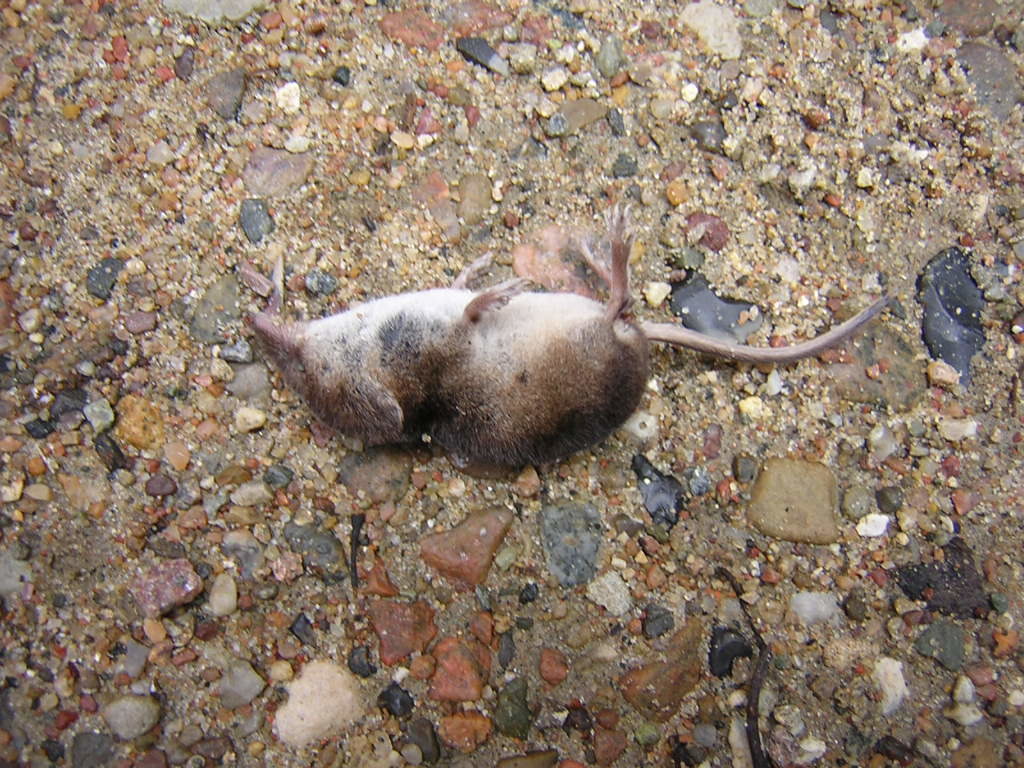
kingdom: Animalia
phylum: Chordata
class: Mammalia
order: Soricomorpha
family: Soricidae
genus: Sorex
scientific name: Sorex araneus
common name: Common shrew
